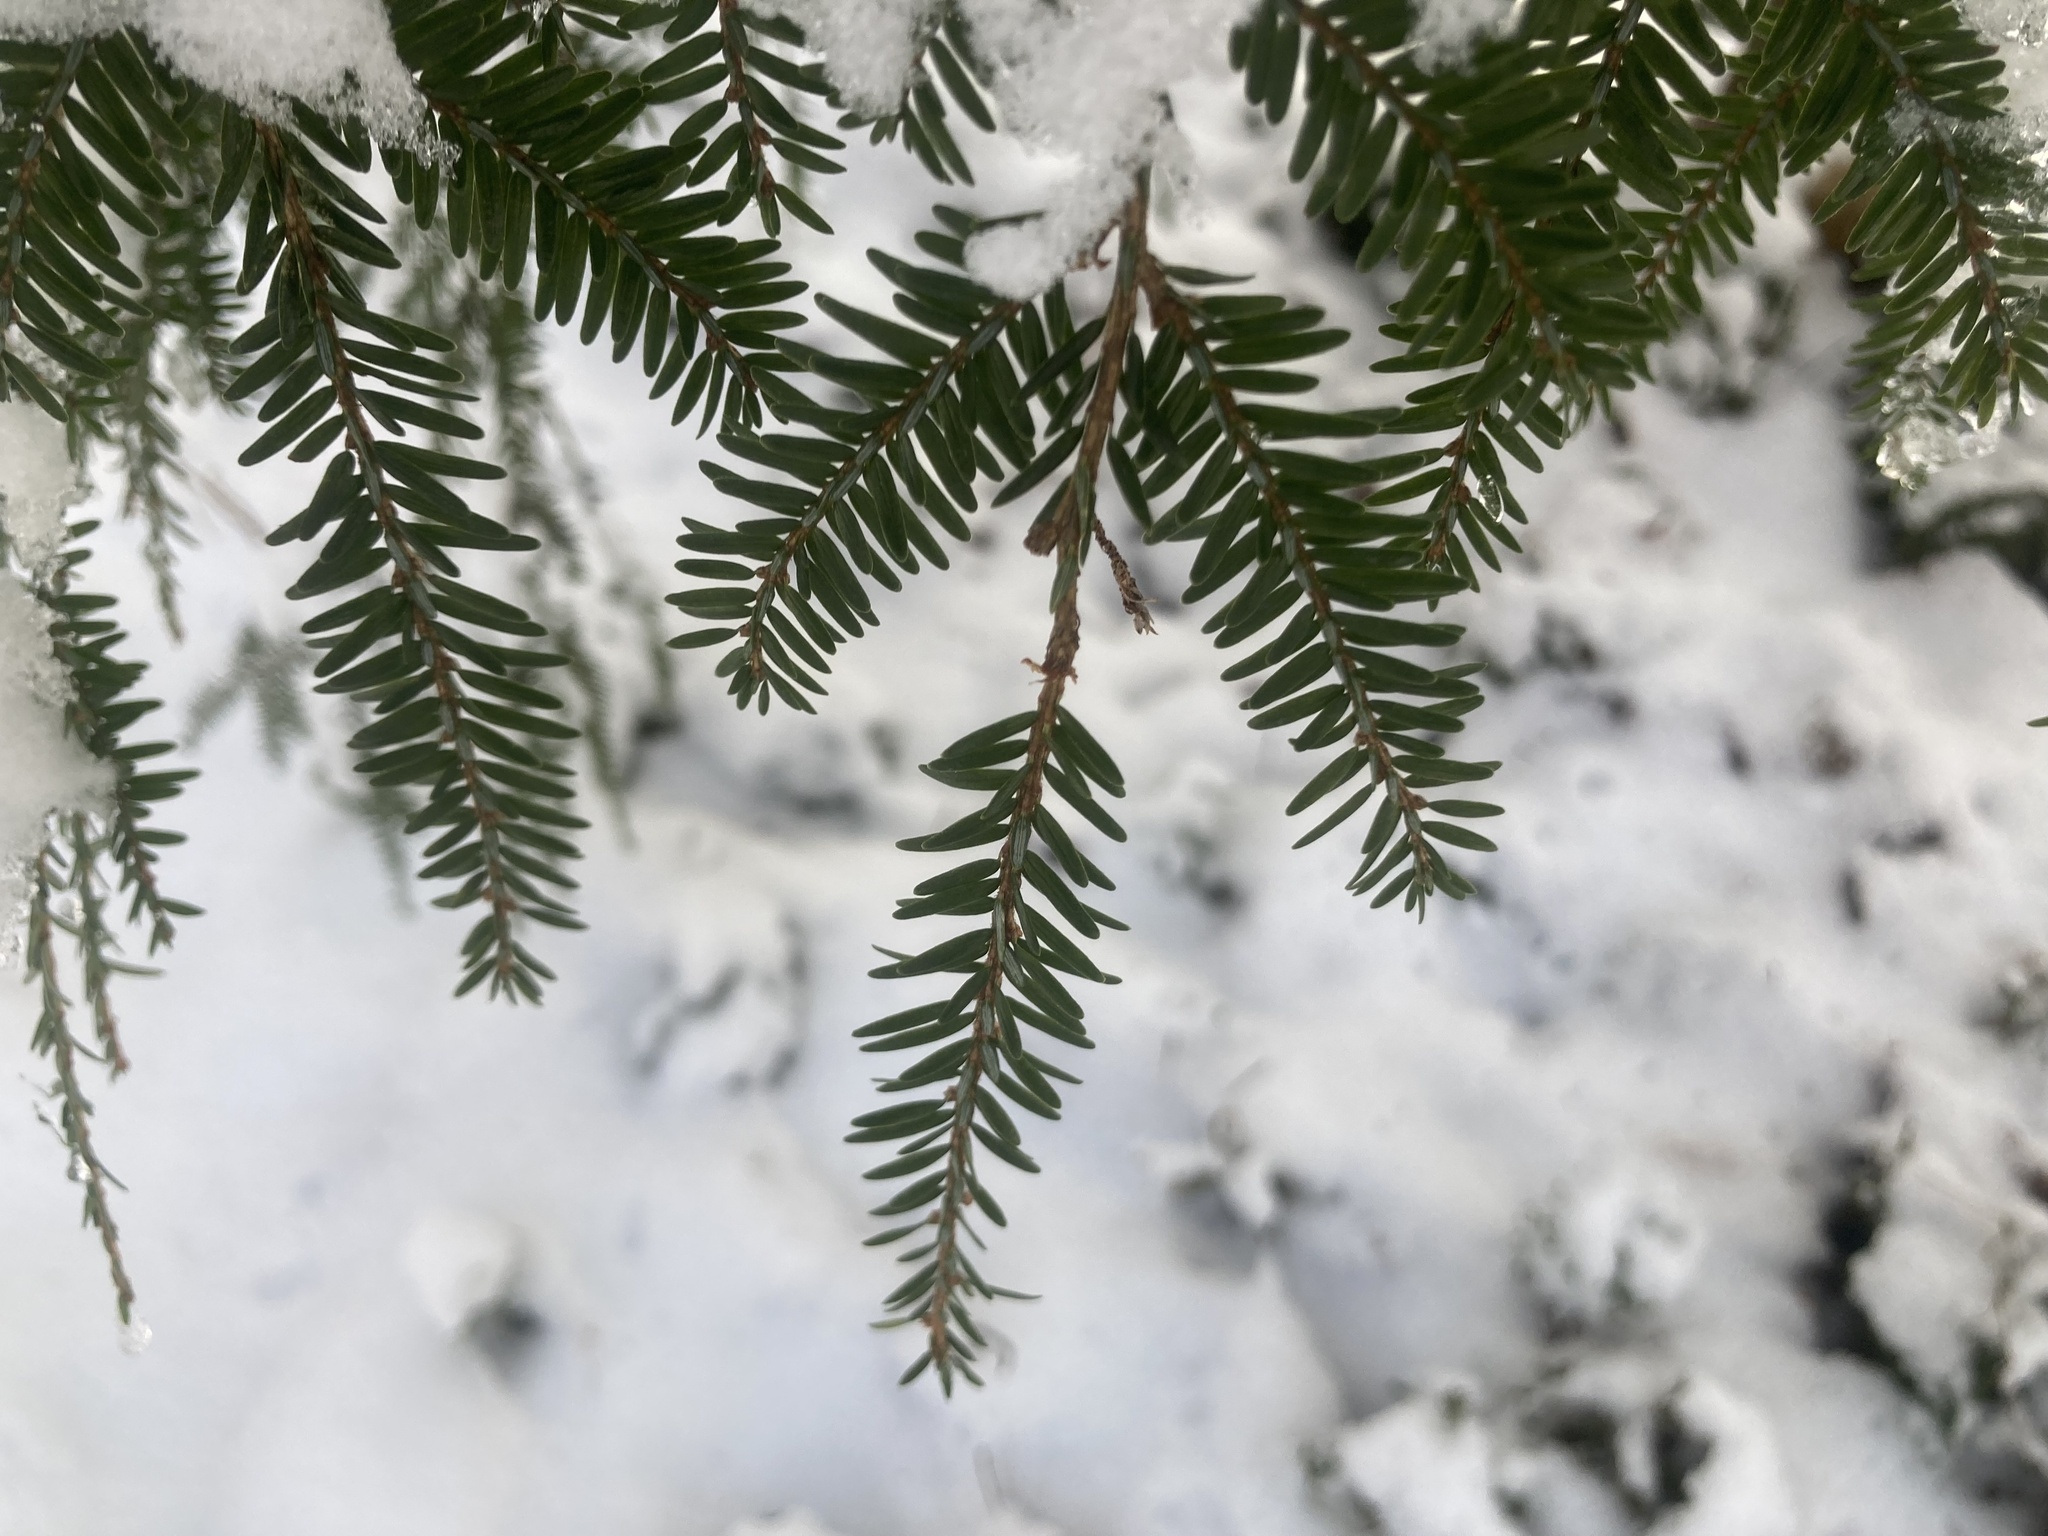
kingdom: Plantae
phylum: Tracheophyta
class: Pinopsida
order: Pinales
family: Pinaceae
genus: Tsuga
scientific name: Tsuga canadensis
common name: Eastern hemlock
